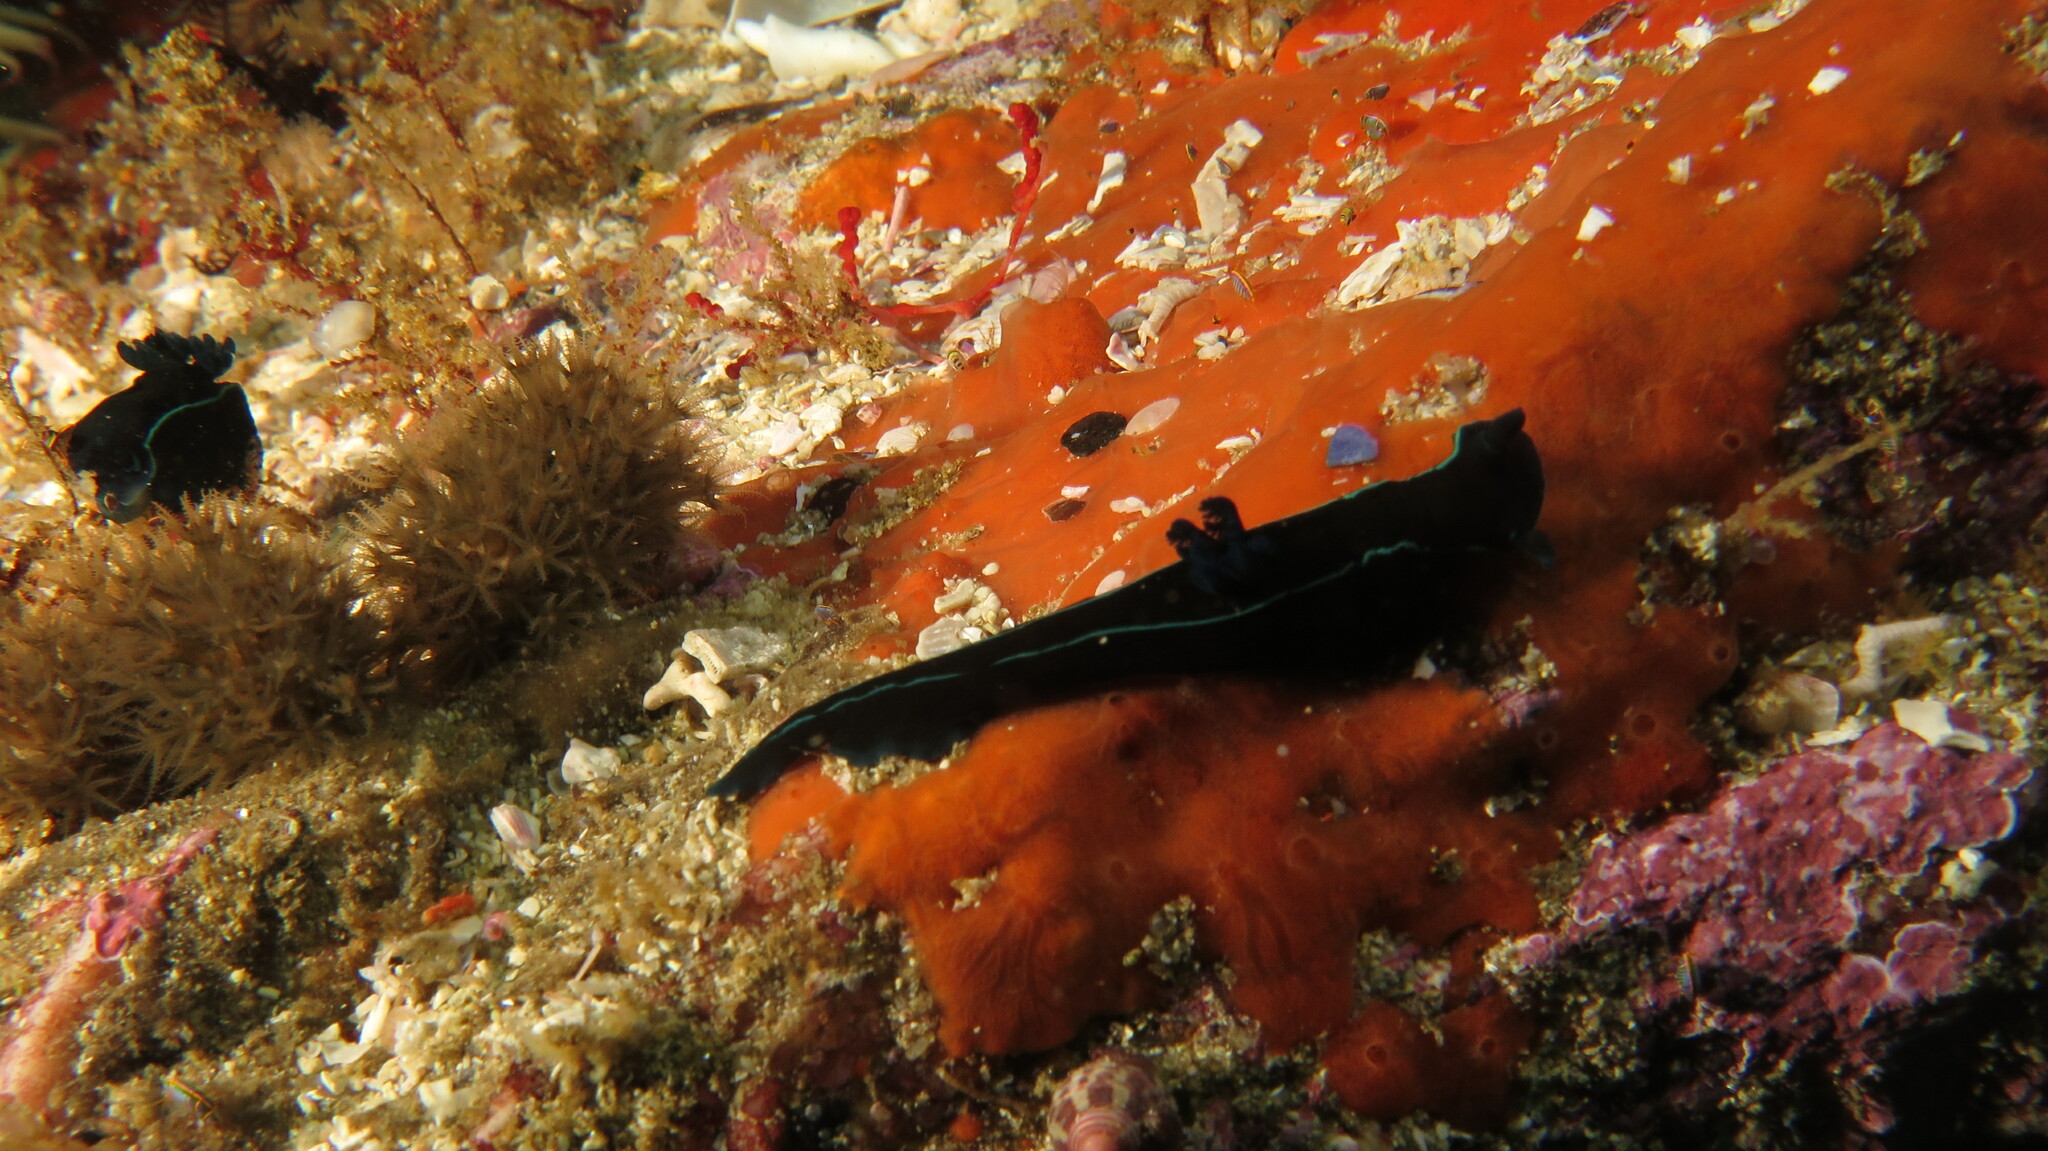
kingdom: Animalia
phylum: Mollusca
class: Gastropoda
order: Nudibranchia
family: Polyceridae
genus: Tambja
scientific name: Tambja capensis
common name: Black nudibranch
